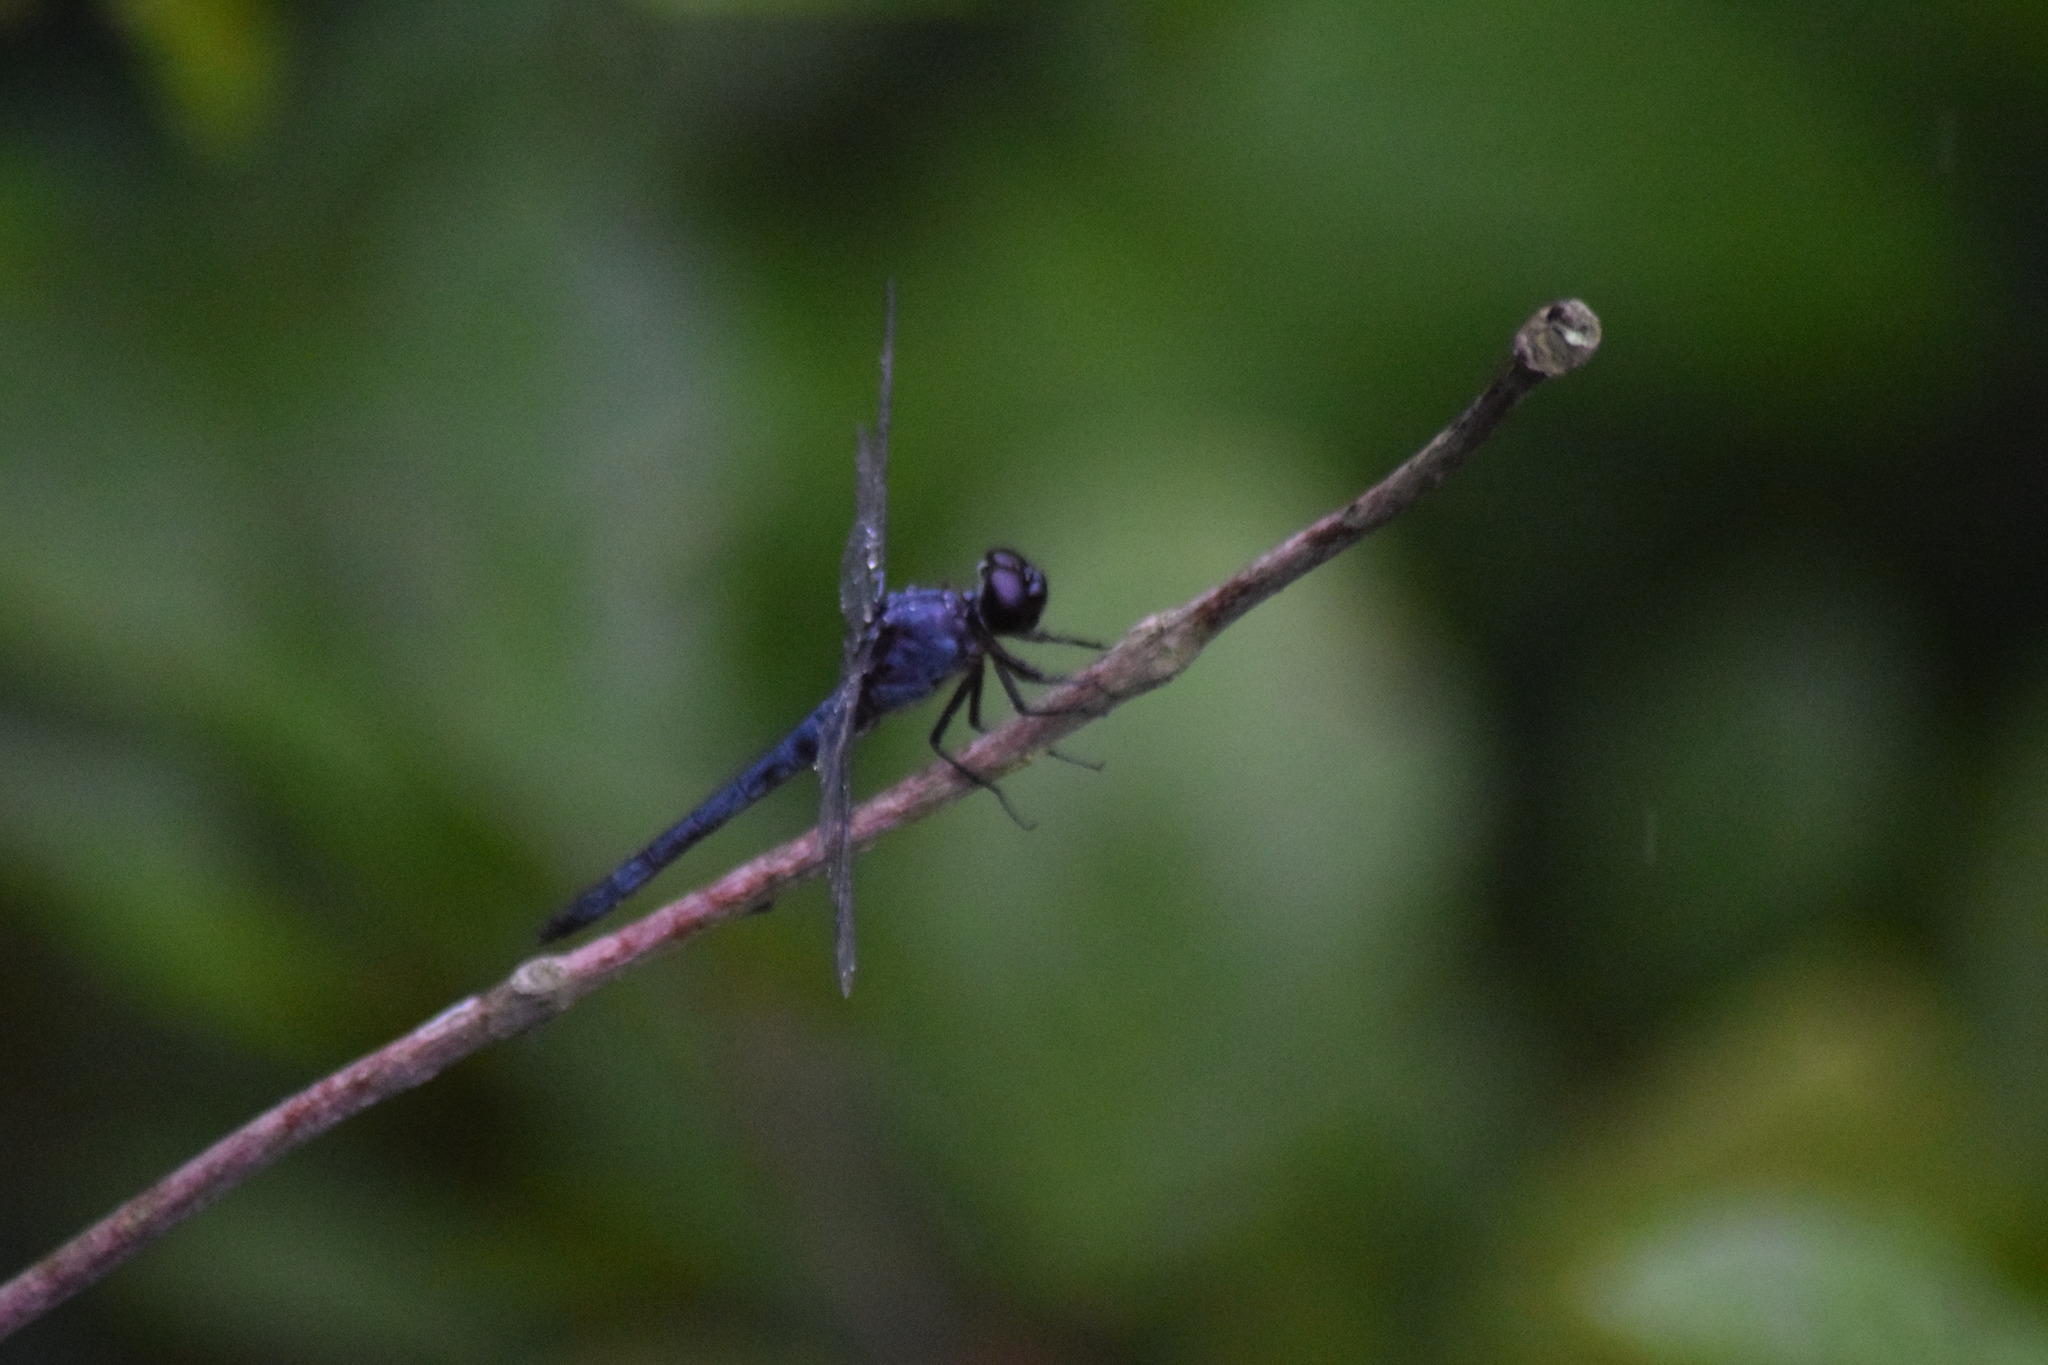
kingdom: Animalia
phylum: Arthropoda
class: Insecta
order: Odonata
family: Libellulidae
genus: Libellula
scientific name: Libellula incesta
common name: Slaty skimmer
